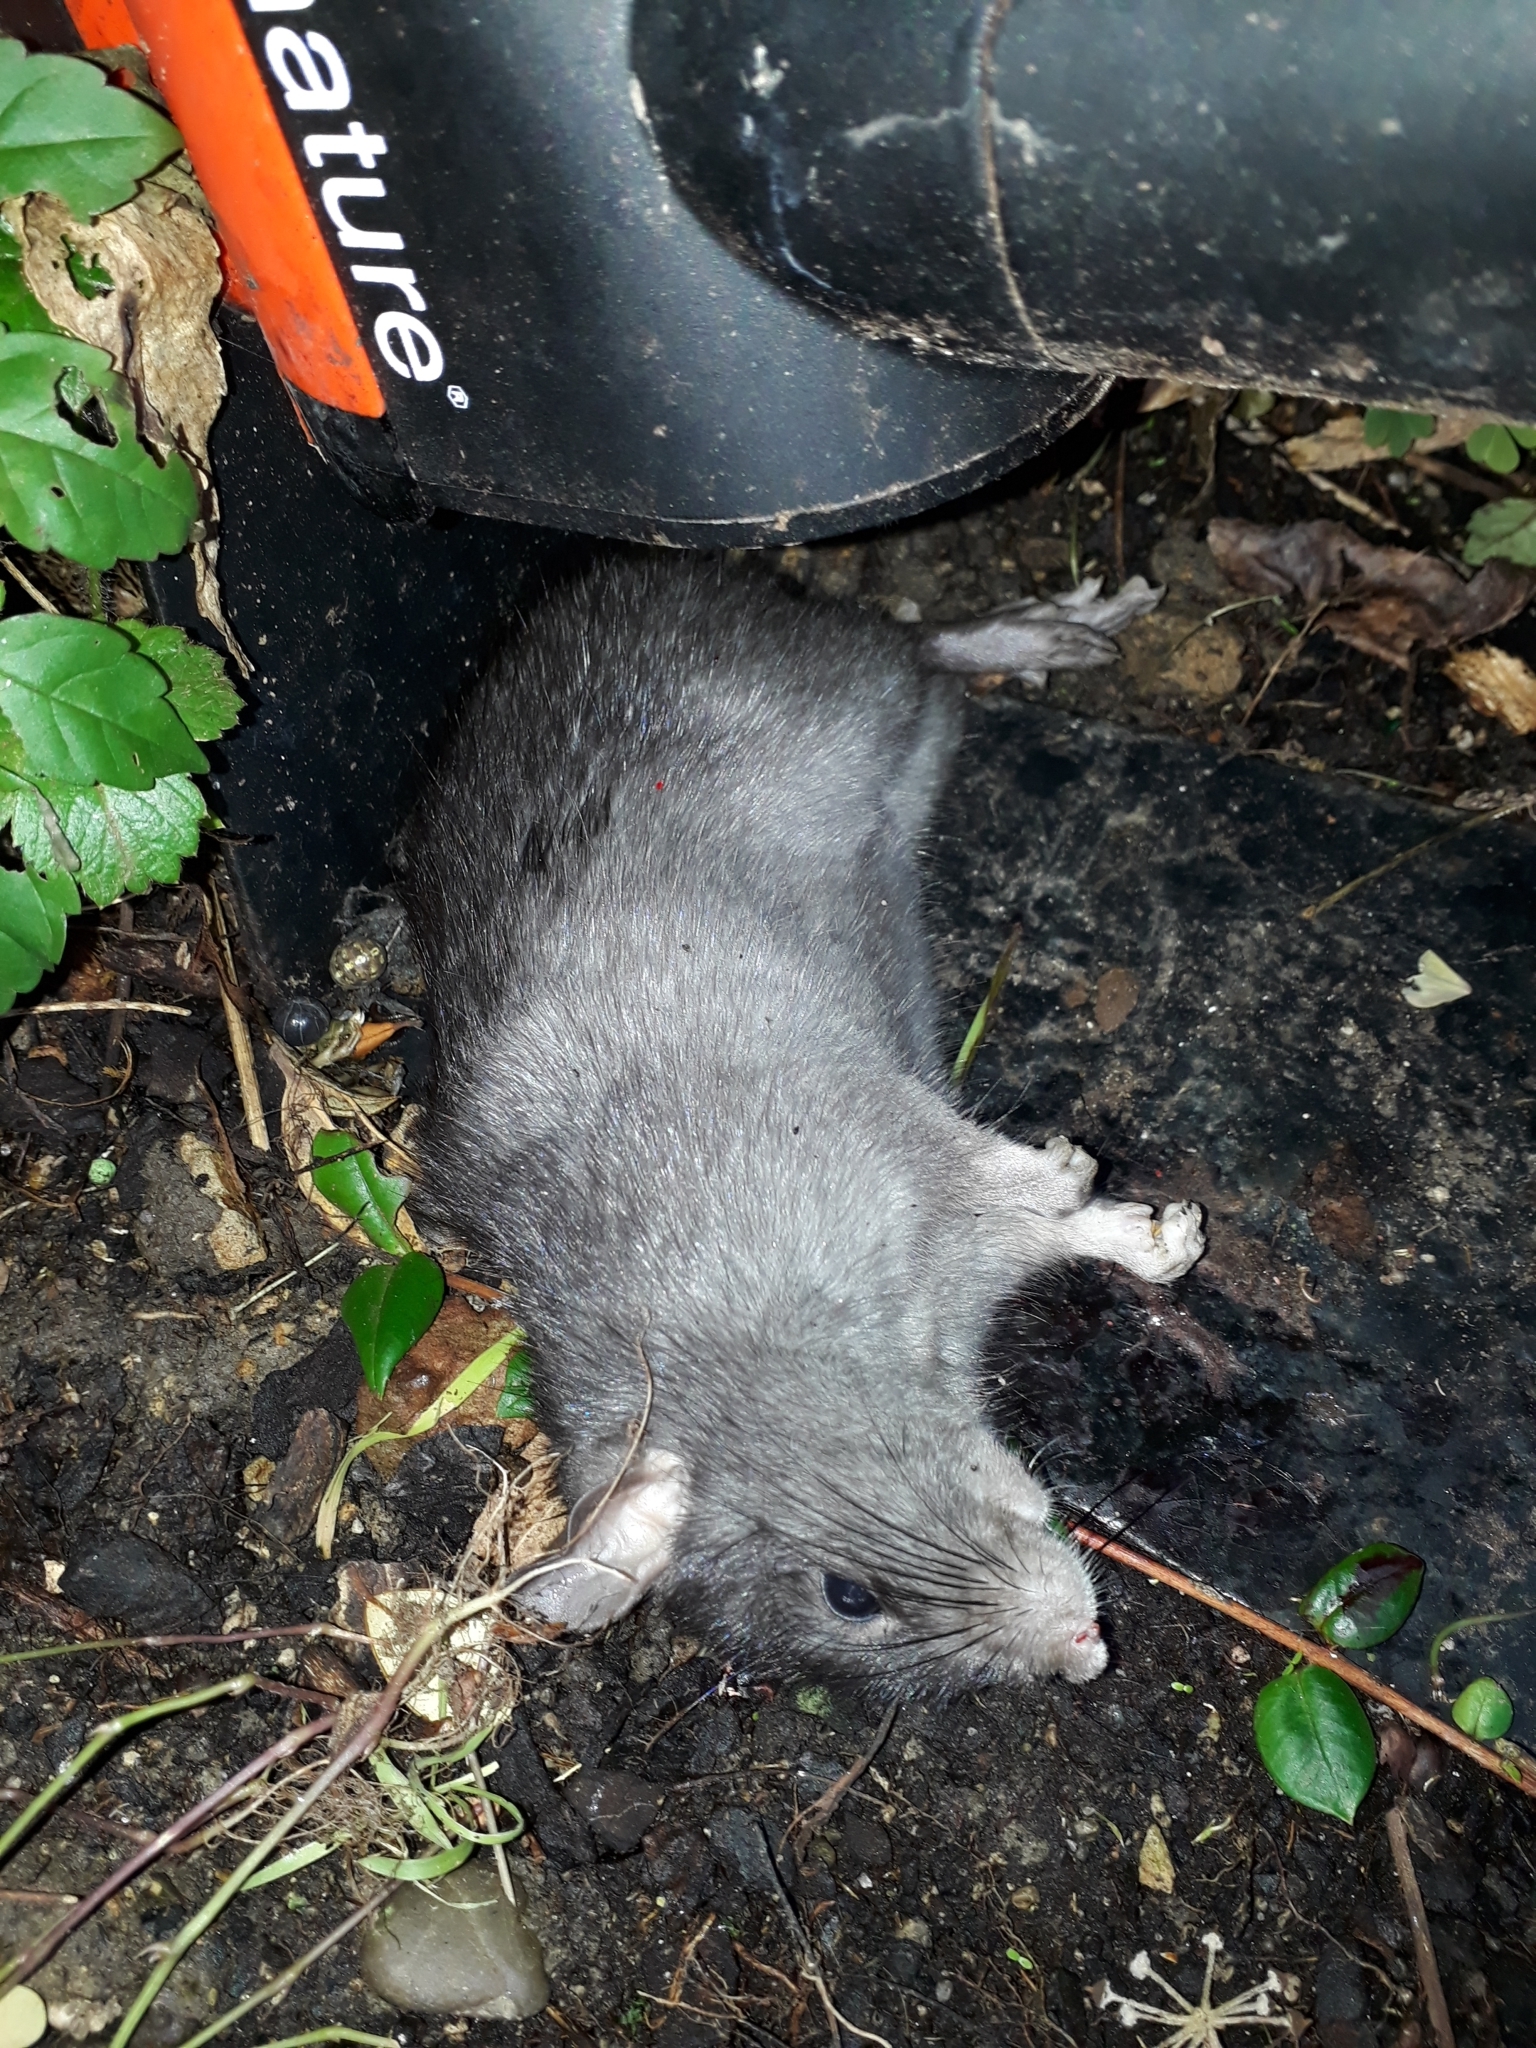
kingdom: Animalia
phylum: Chordata
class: Mammalia
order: Rodentia
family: Muridae
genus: Rattus
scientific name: Rattus rattus
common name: Black rat
